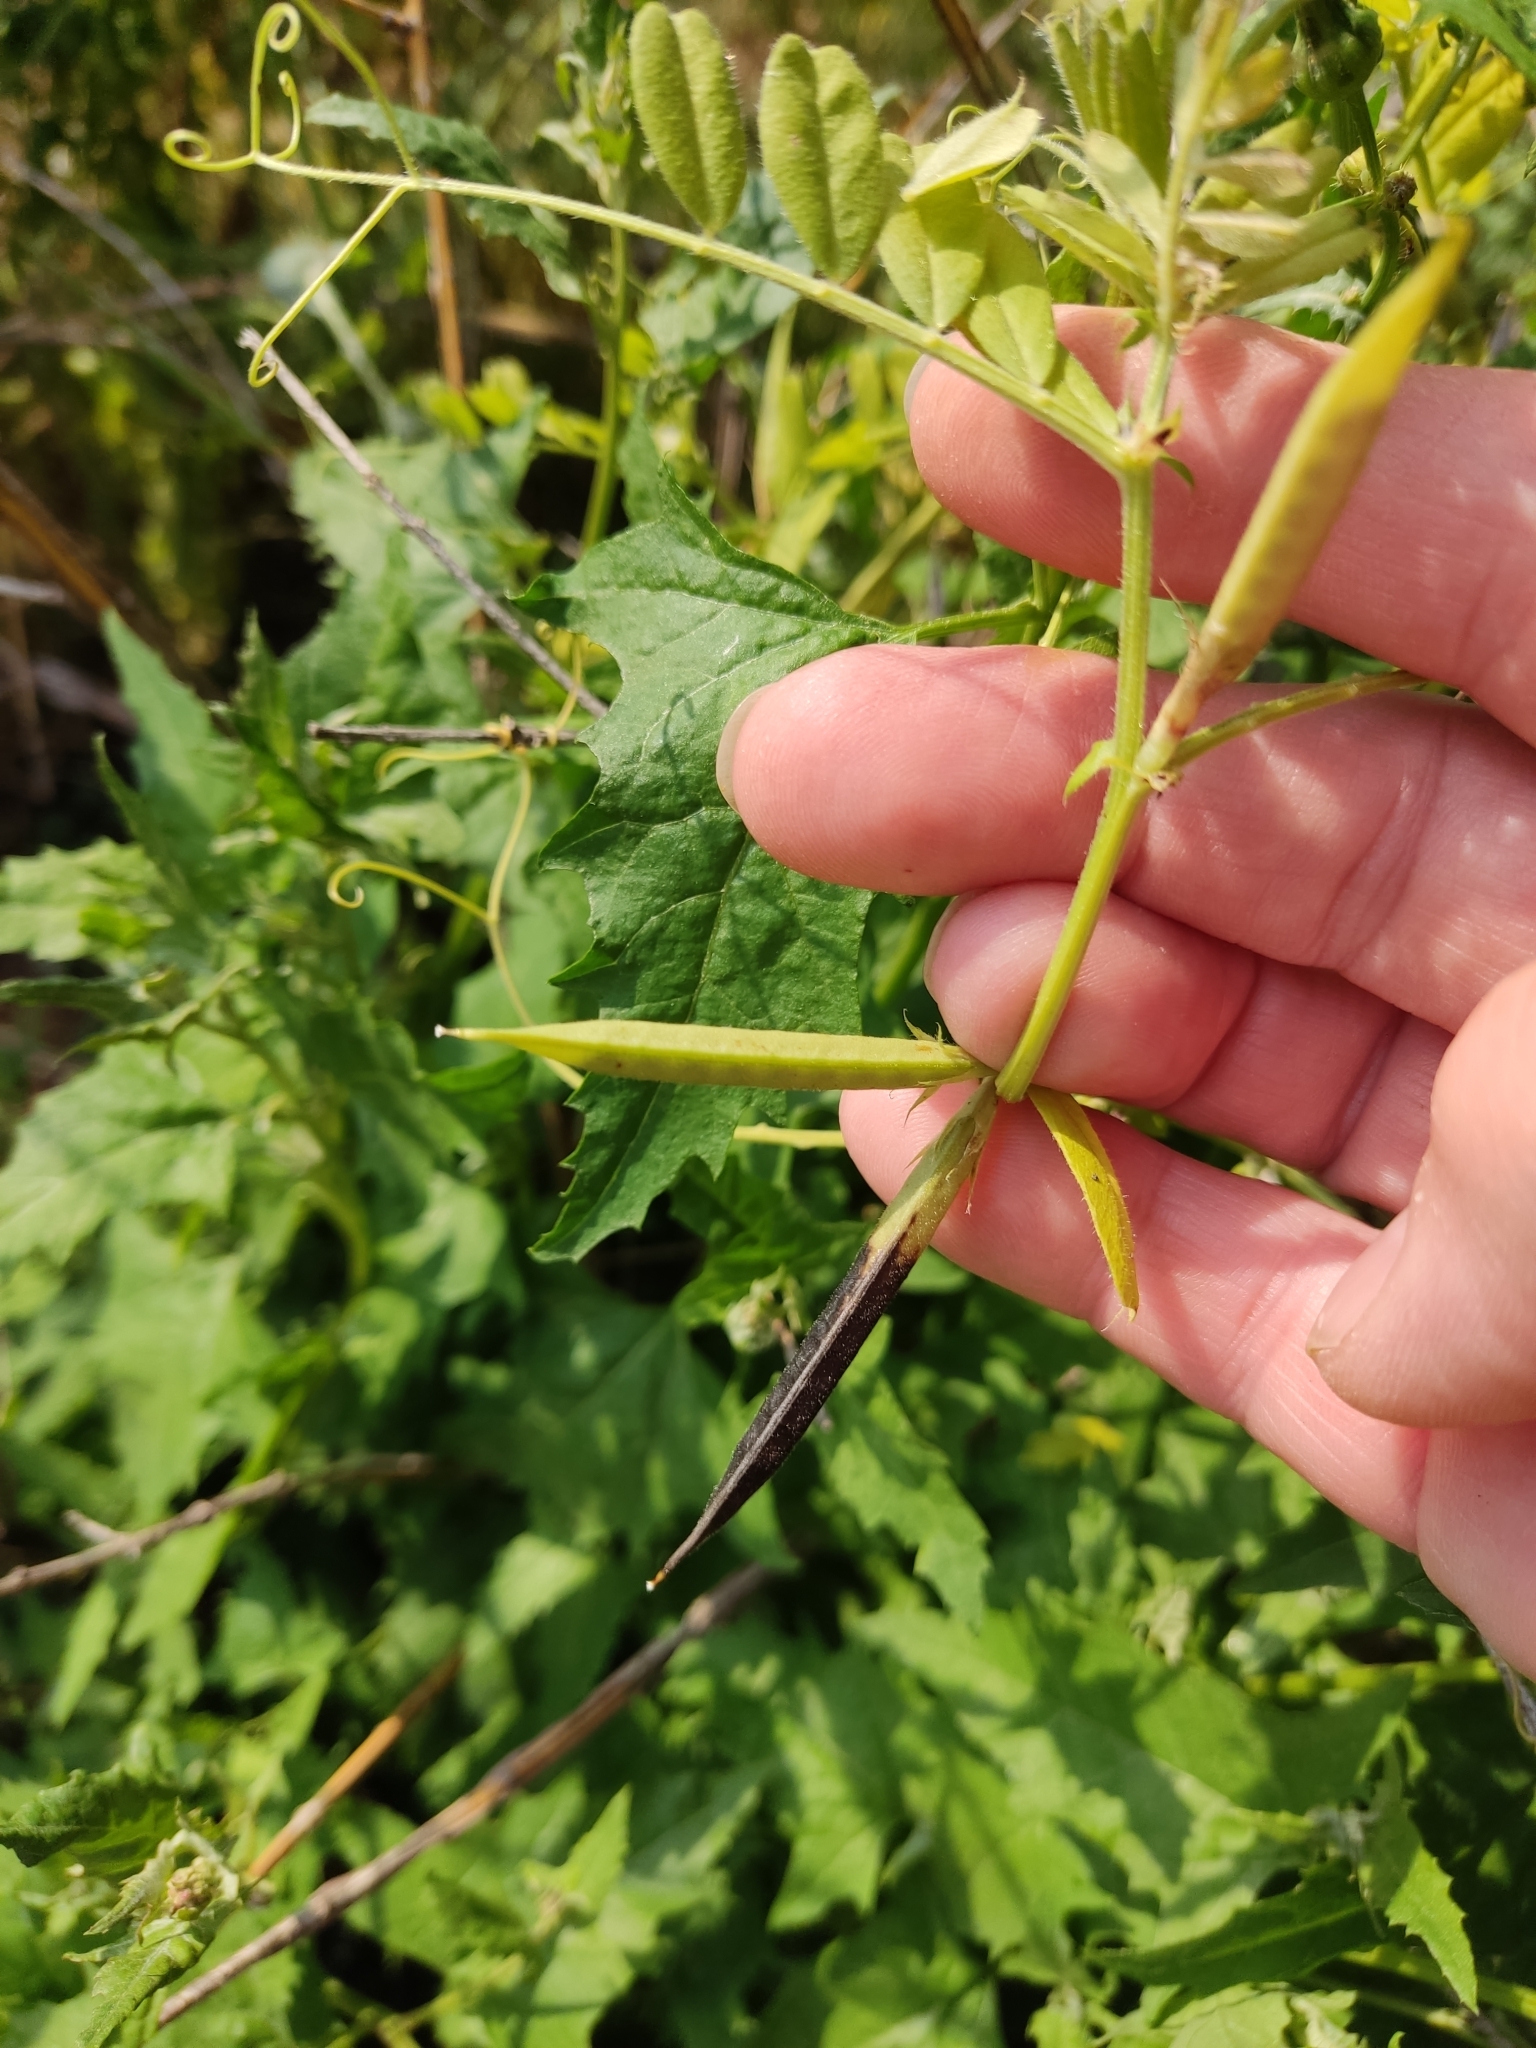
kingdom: Plantae
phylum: Tracheophyta
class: Magnoliopsida
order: Fabales
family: Fabaceae
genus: Vicia
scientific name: Vicia sativa
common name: Garden vetch
